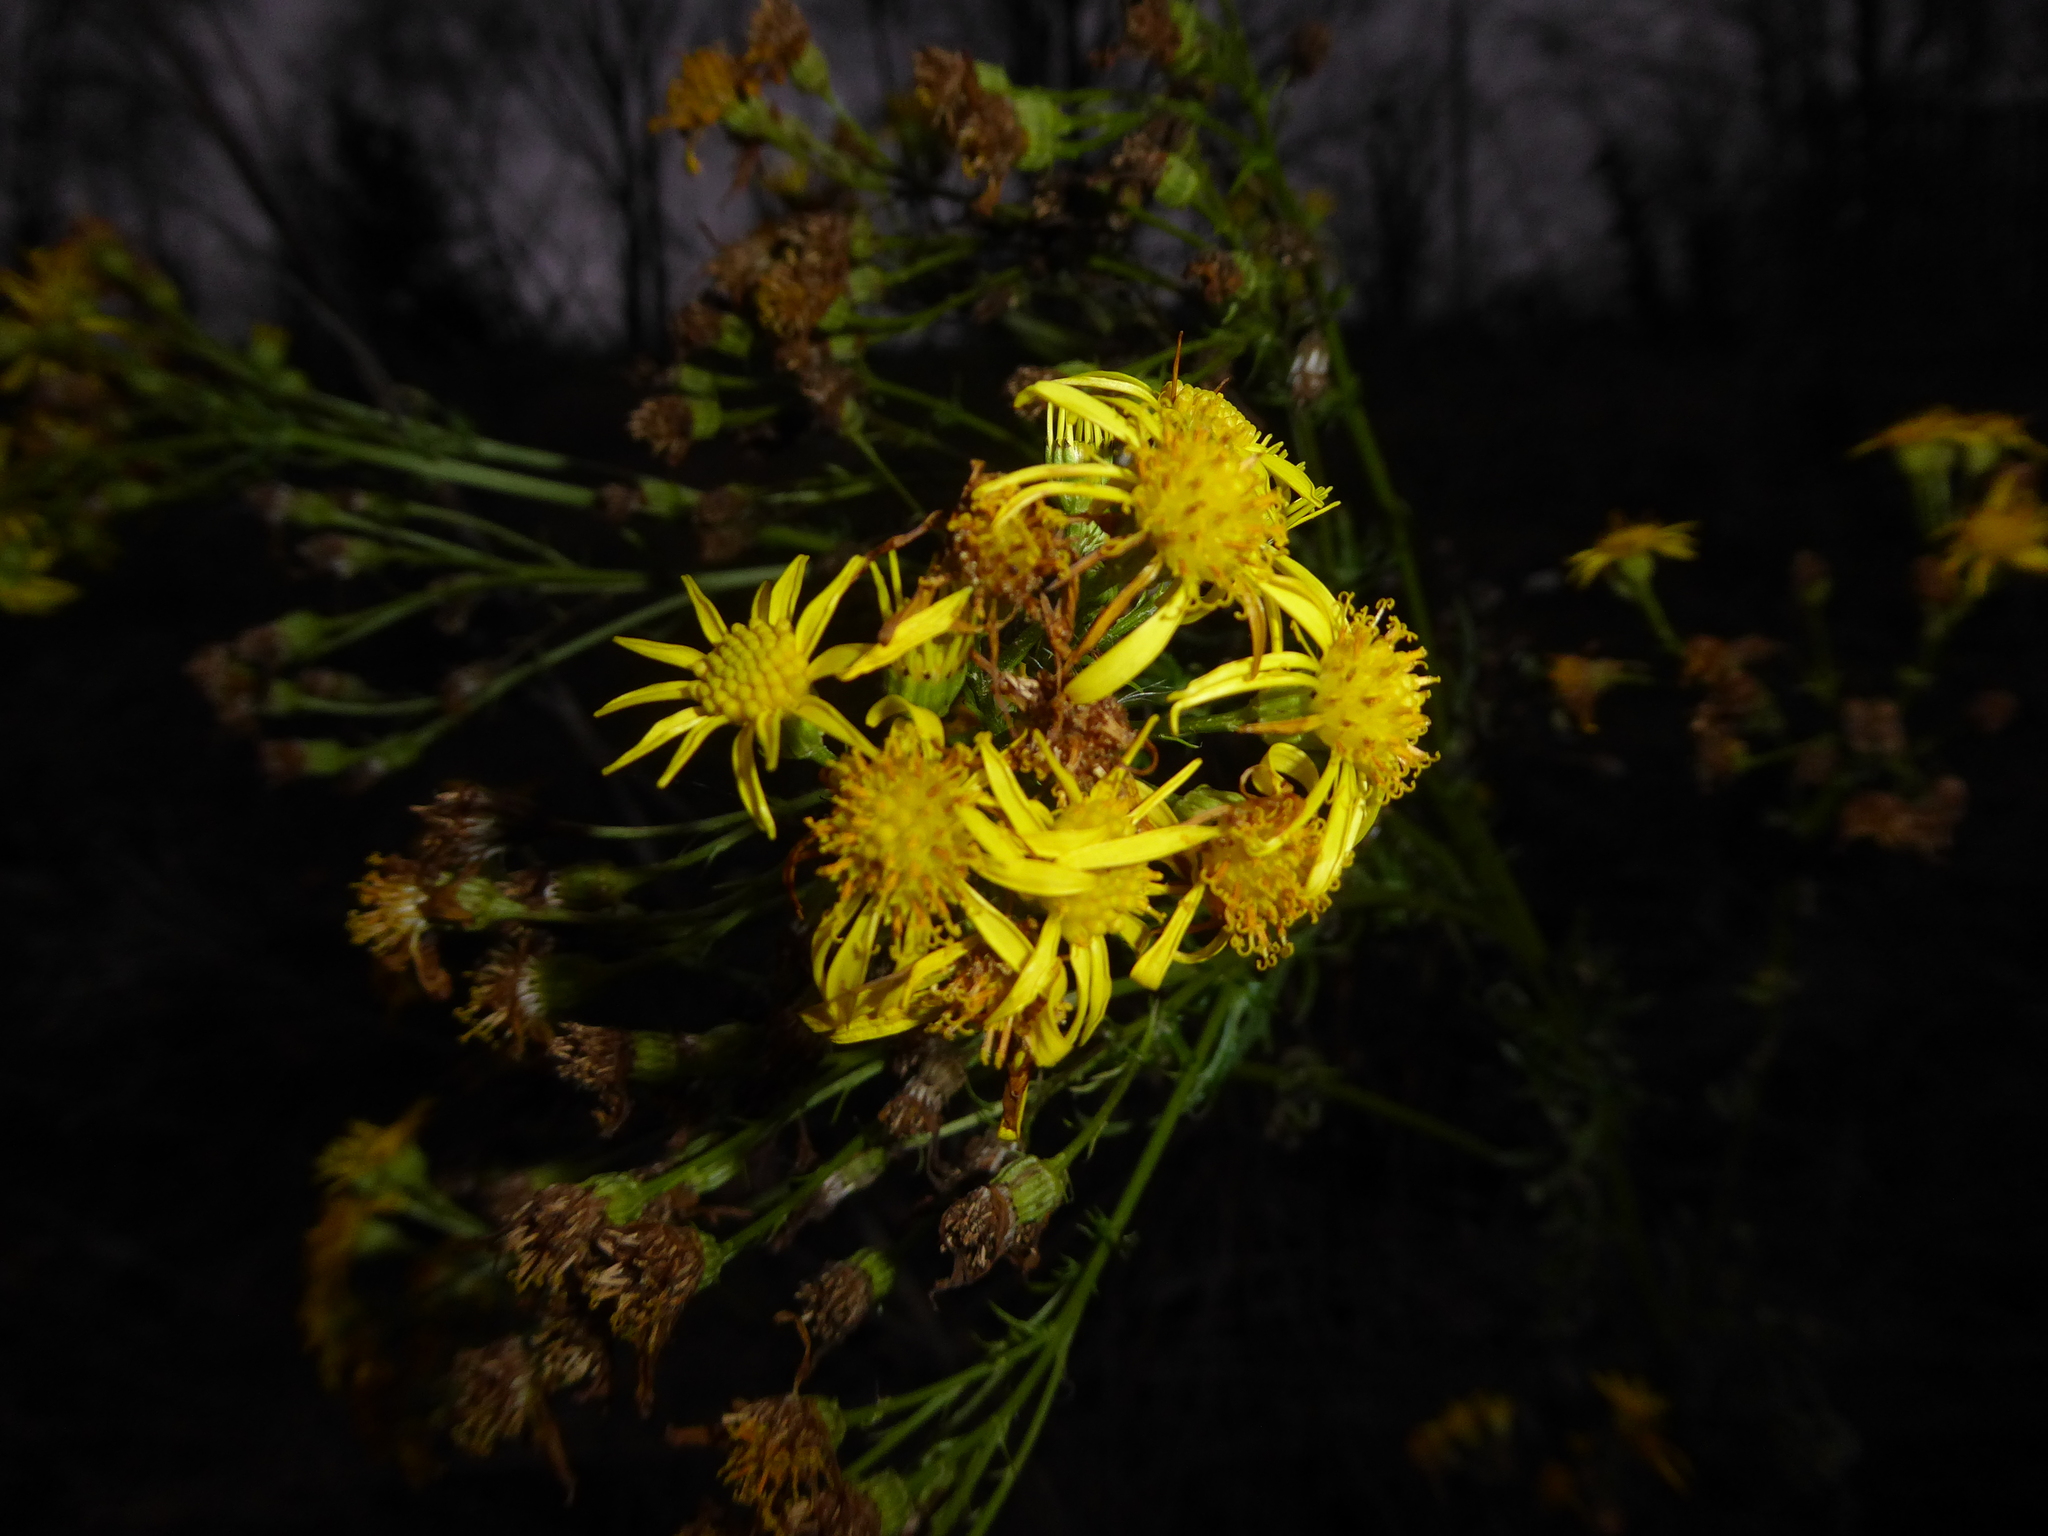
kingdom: Plantae
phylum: Tracheophyta
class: Magnoliopsida
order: Asterales
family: Asteraceae
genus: Jacobaea
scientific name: Jacobaea vulgaris
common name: Stinking willie
